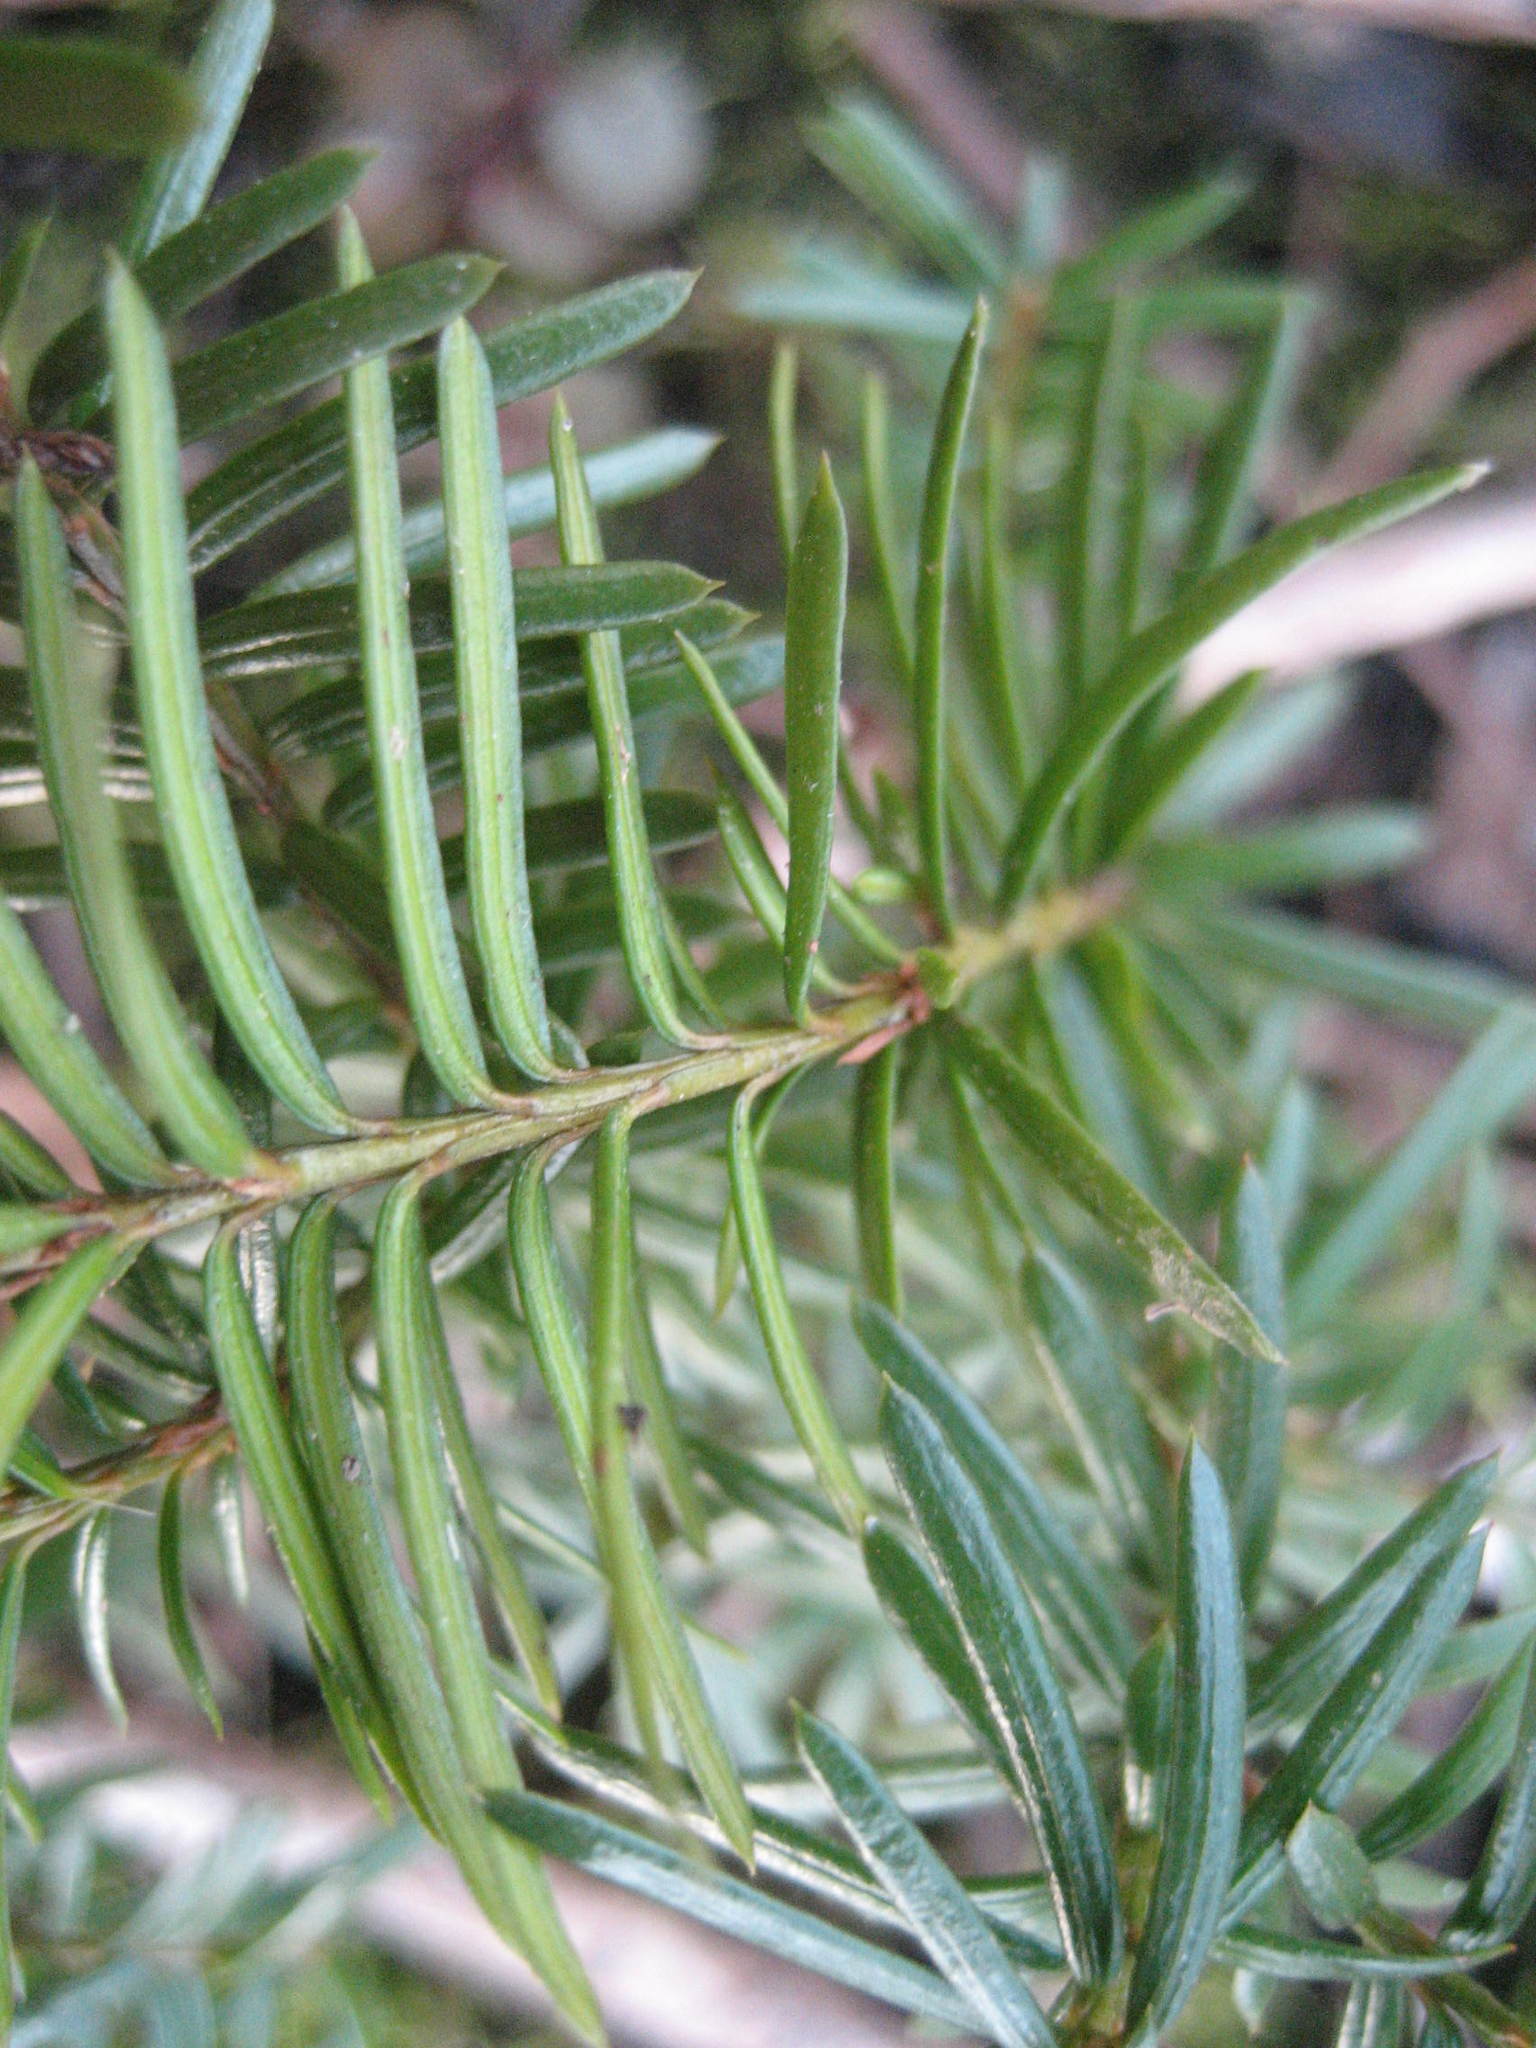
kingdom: Plantae
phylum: Tracheophyta
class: Pinopsida
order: Pinales
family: Taxaceae
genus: Taxus
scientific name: Taxus canadensis
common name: American yew
